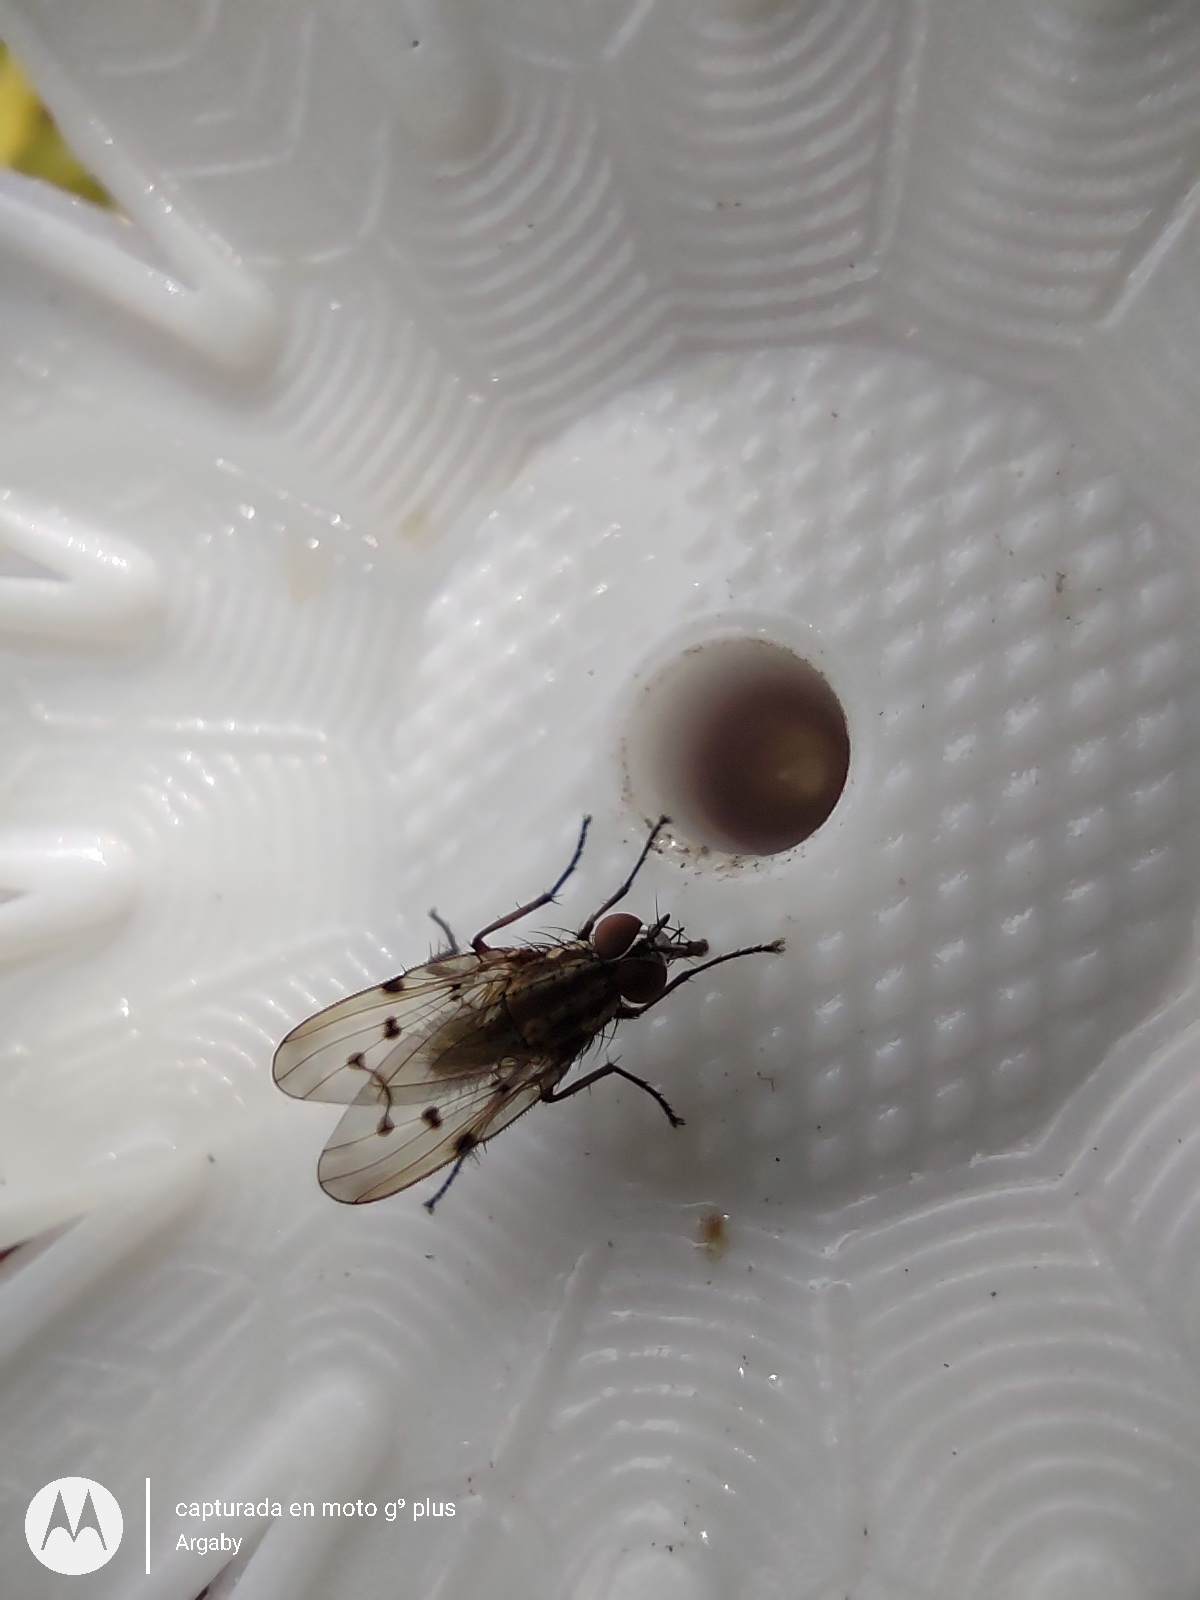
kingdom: Animalia
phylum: Arthropoda
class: Insecta
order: Diptera
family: Anthomyiidae
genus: Anthomyia
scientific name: Anthomyia punctipennis
